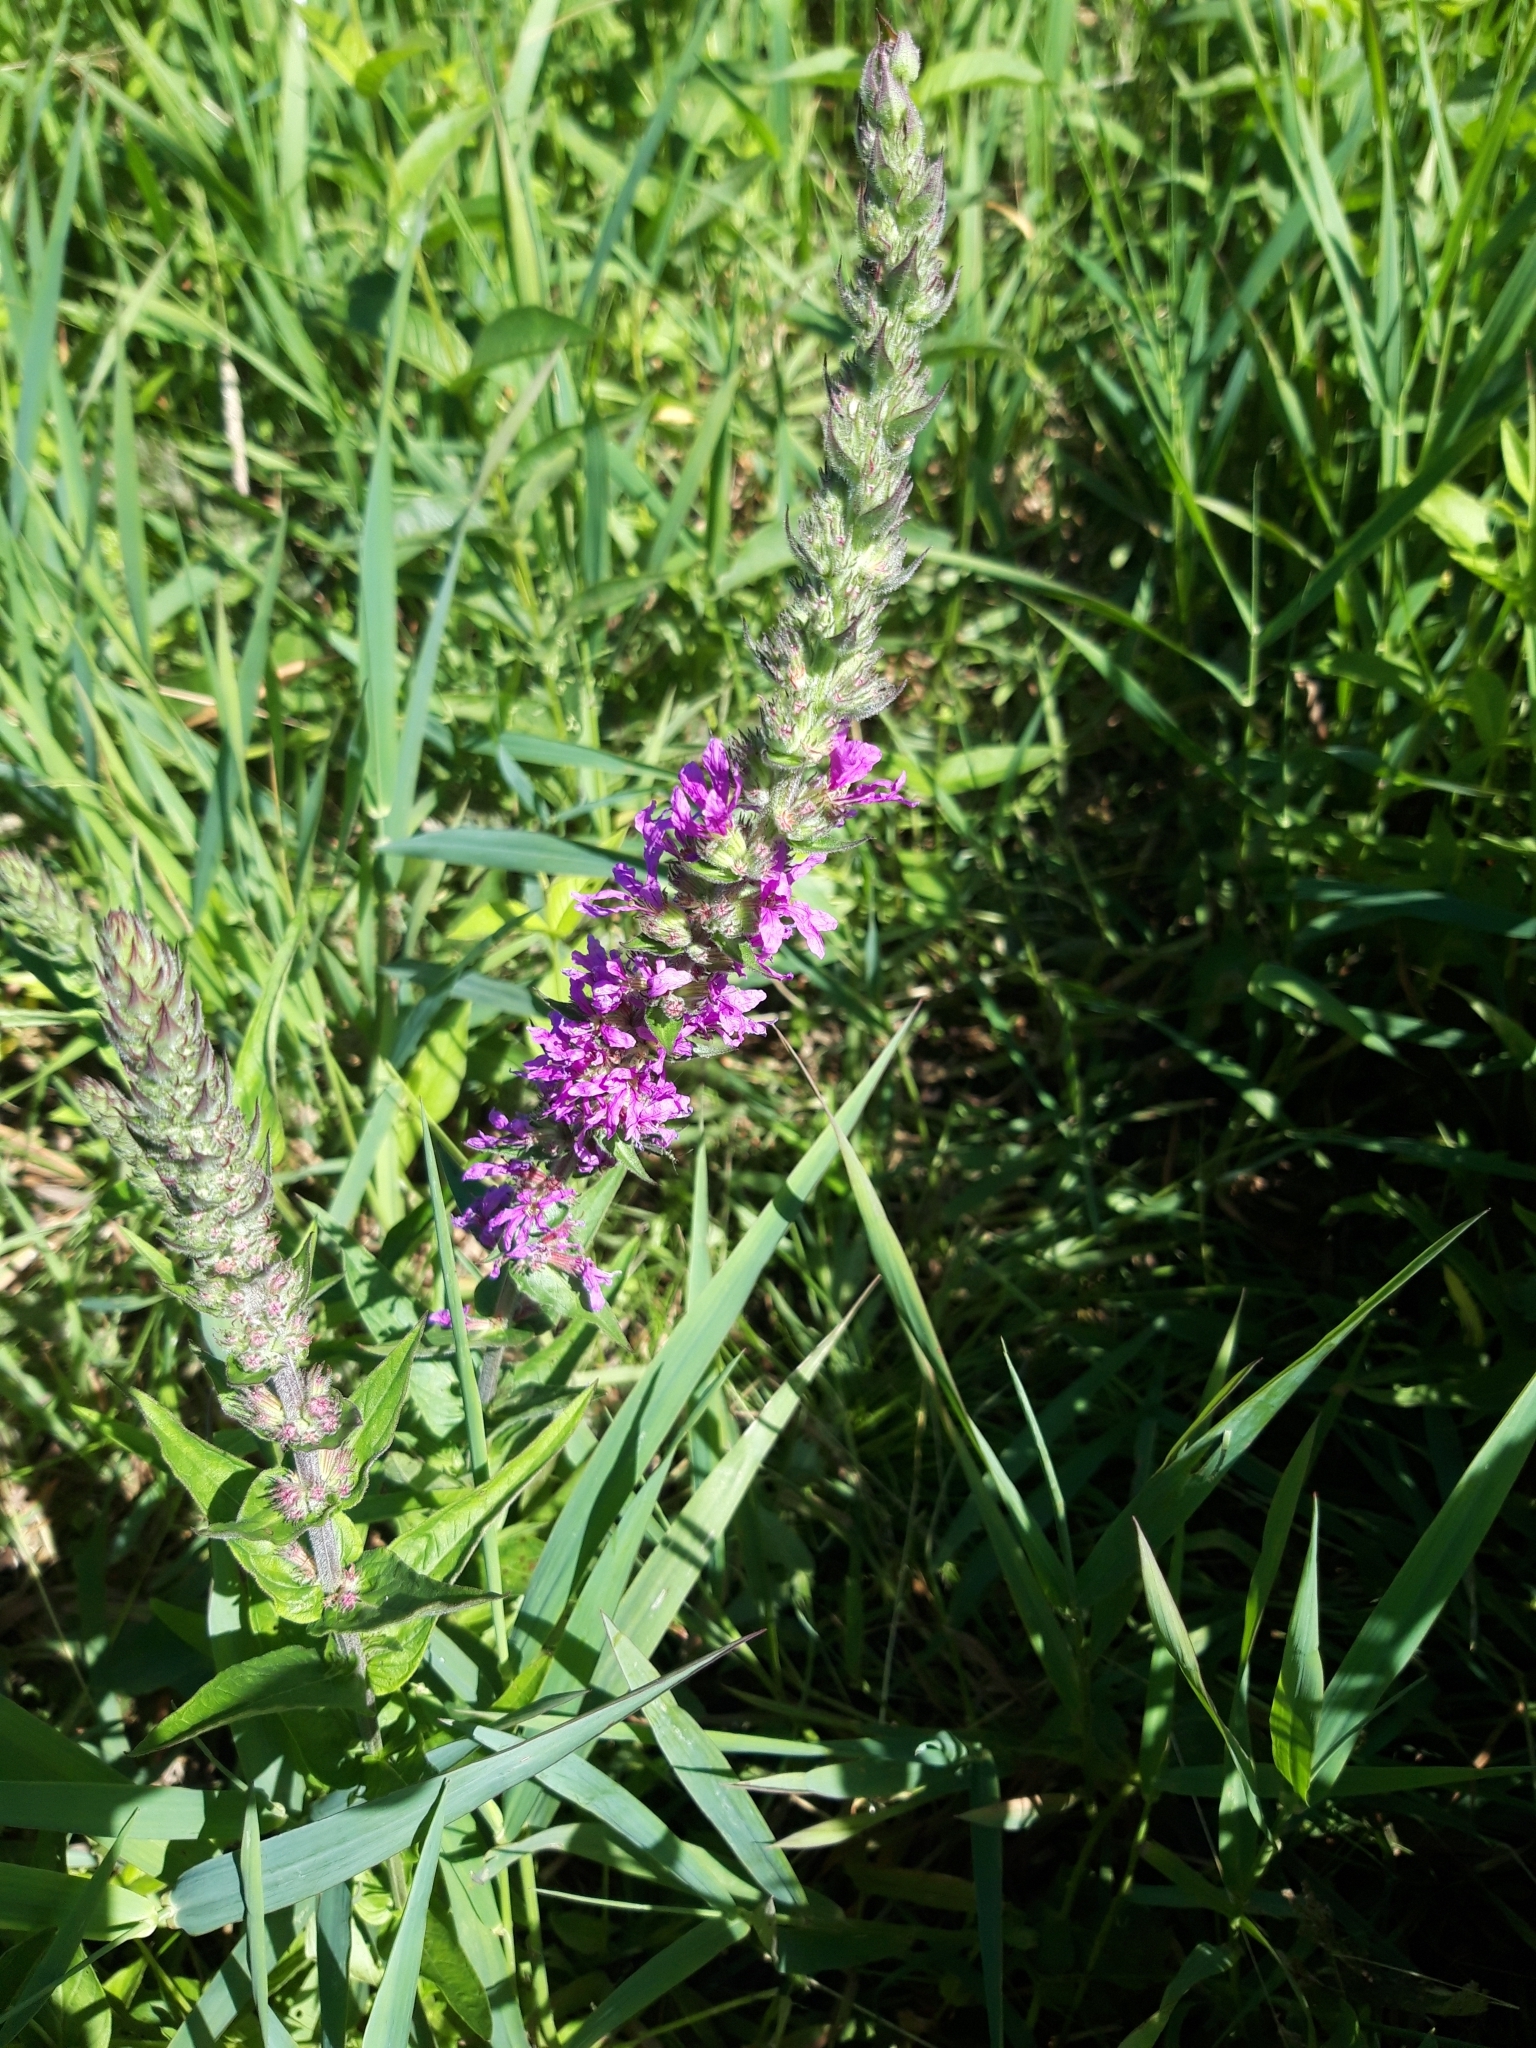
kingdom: Plantae
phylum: Tracheophyta
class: Magnoliopsida
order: Myrtales
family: Lythraceae
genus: Lythrum
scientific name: Lythrum salicaria
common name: Purple loosestrife
